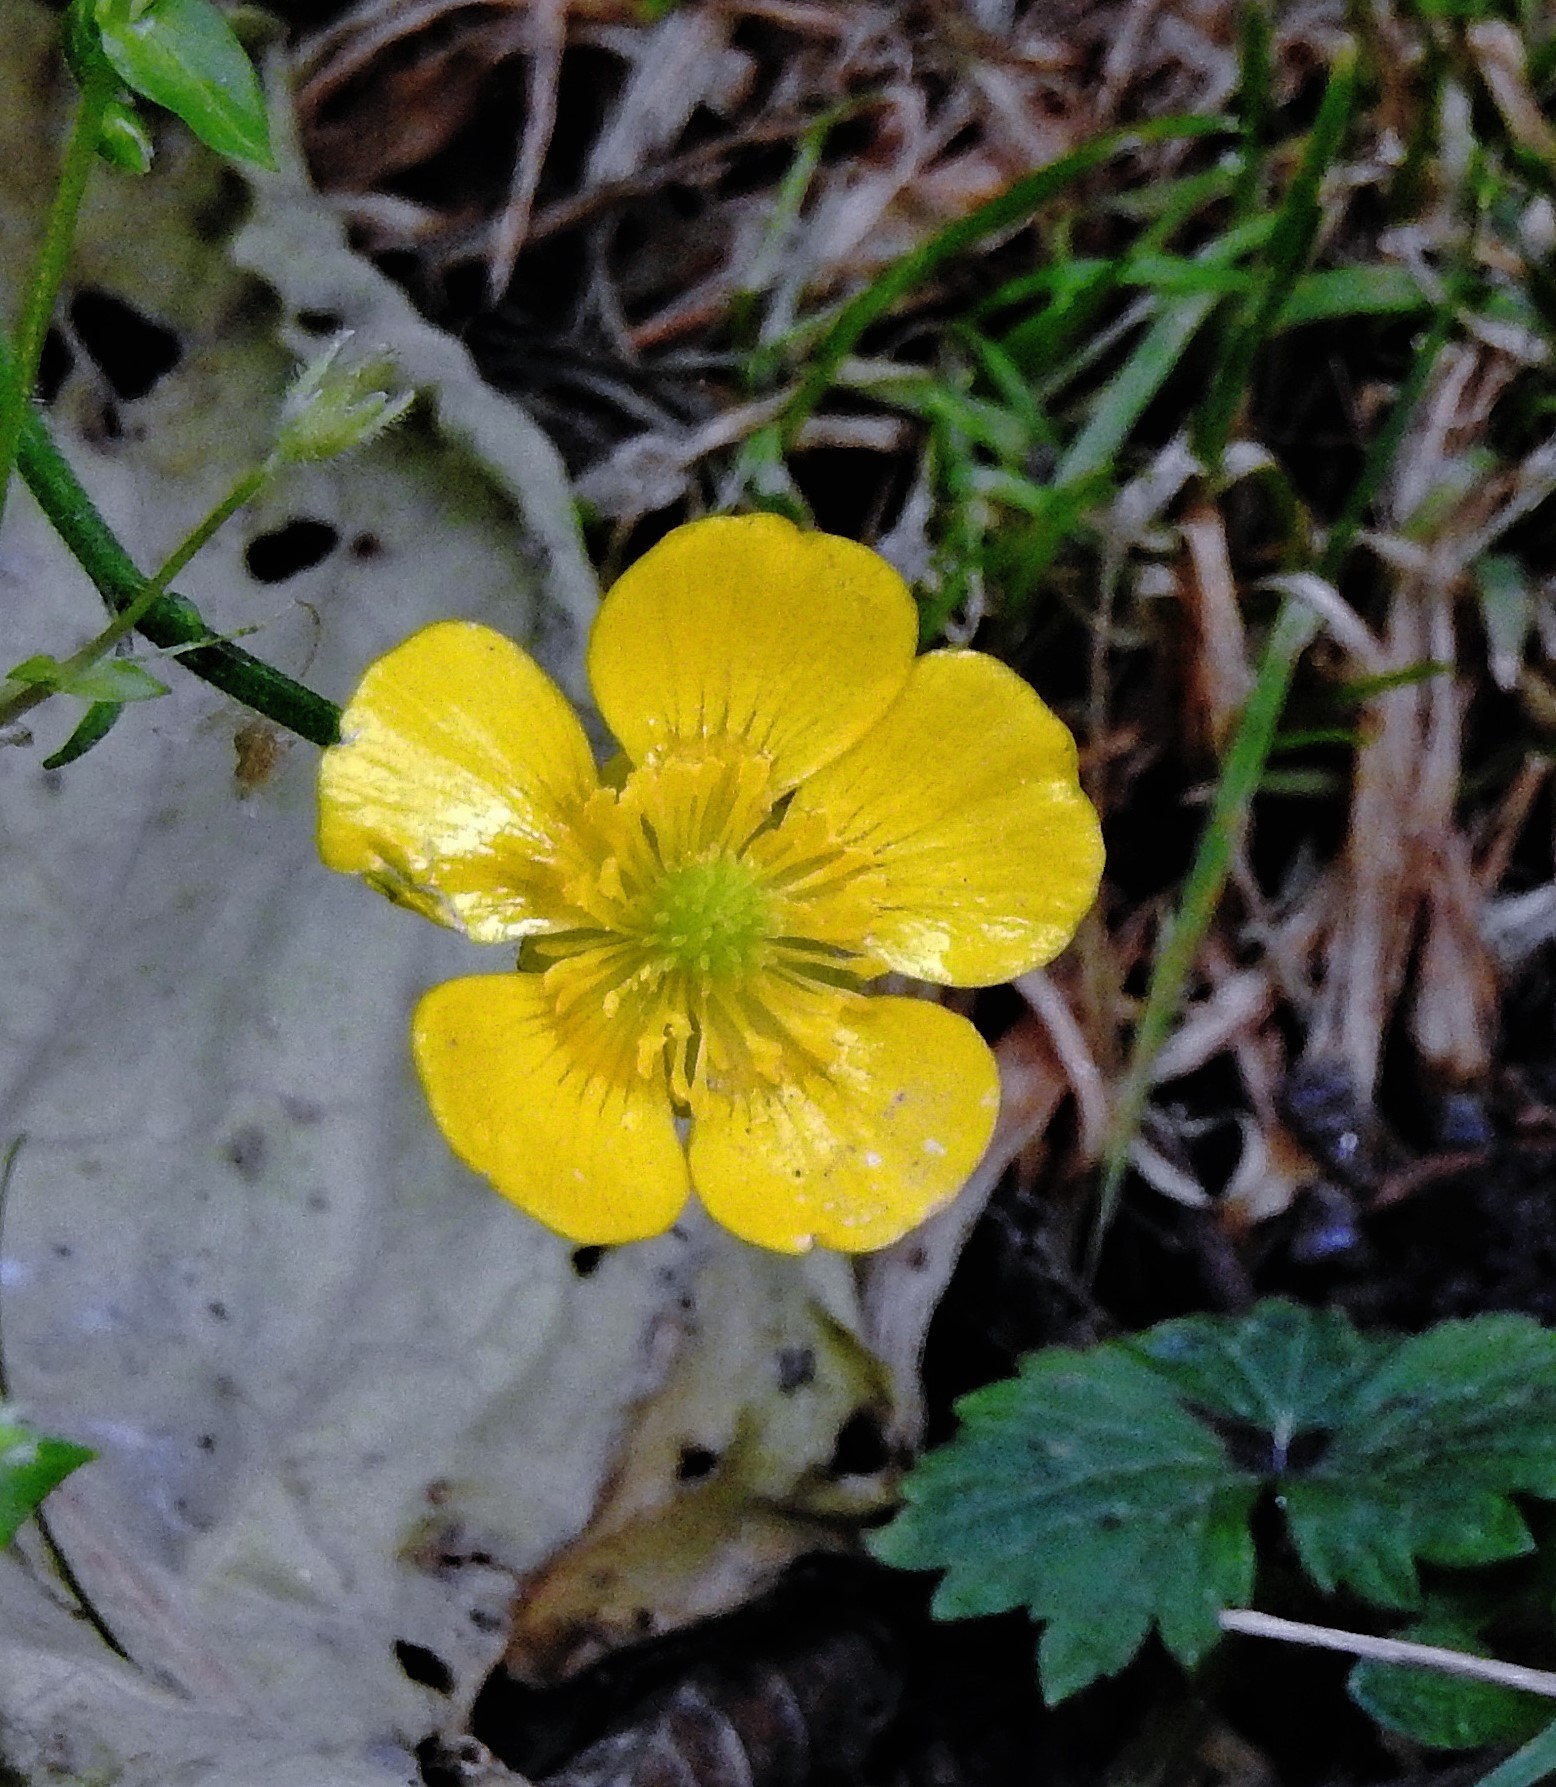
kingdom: Plantae
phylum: Tracheophyta
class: Magnoliopsida
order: Ranunculales
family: Ranunculaceae
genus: Ranunculus
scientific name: Ranunculus repens
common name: Creeping buttercup
